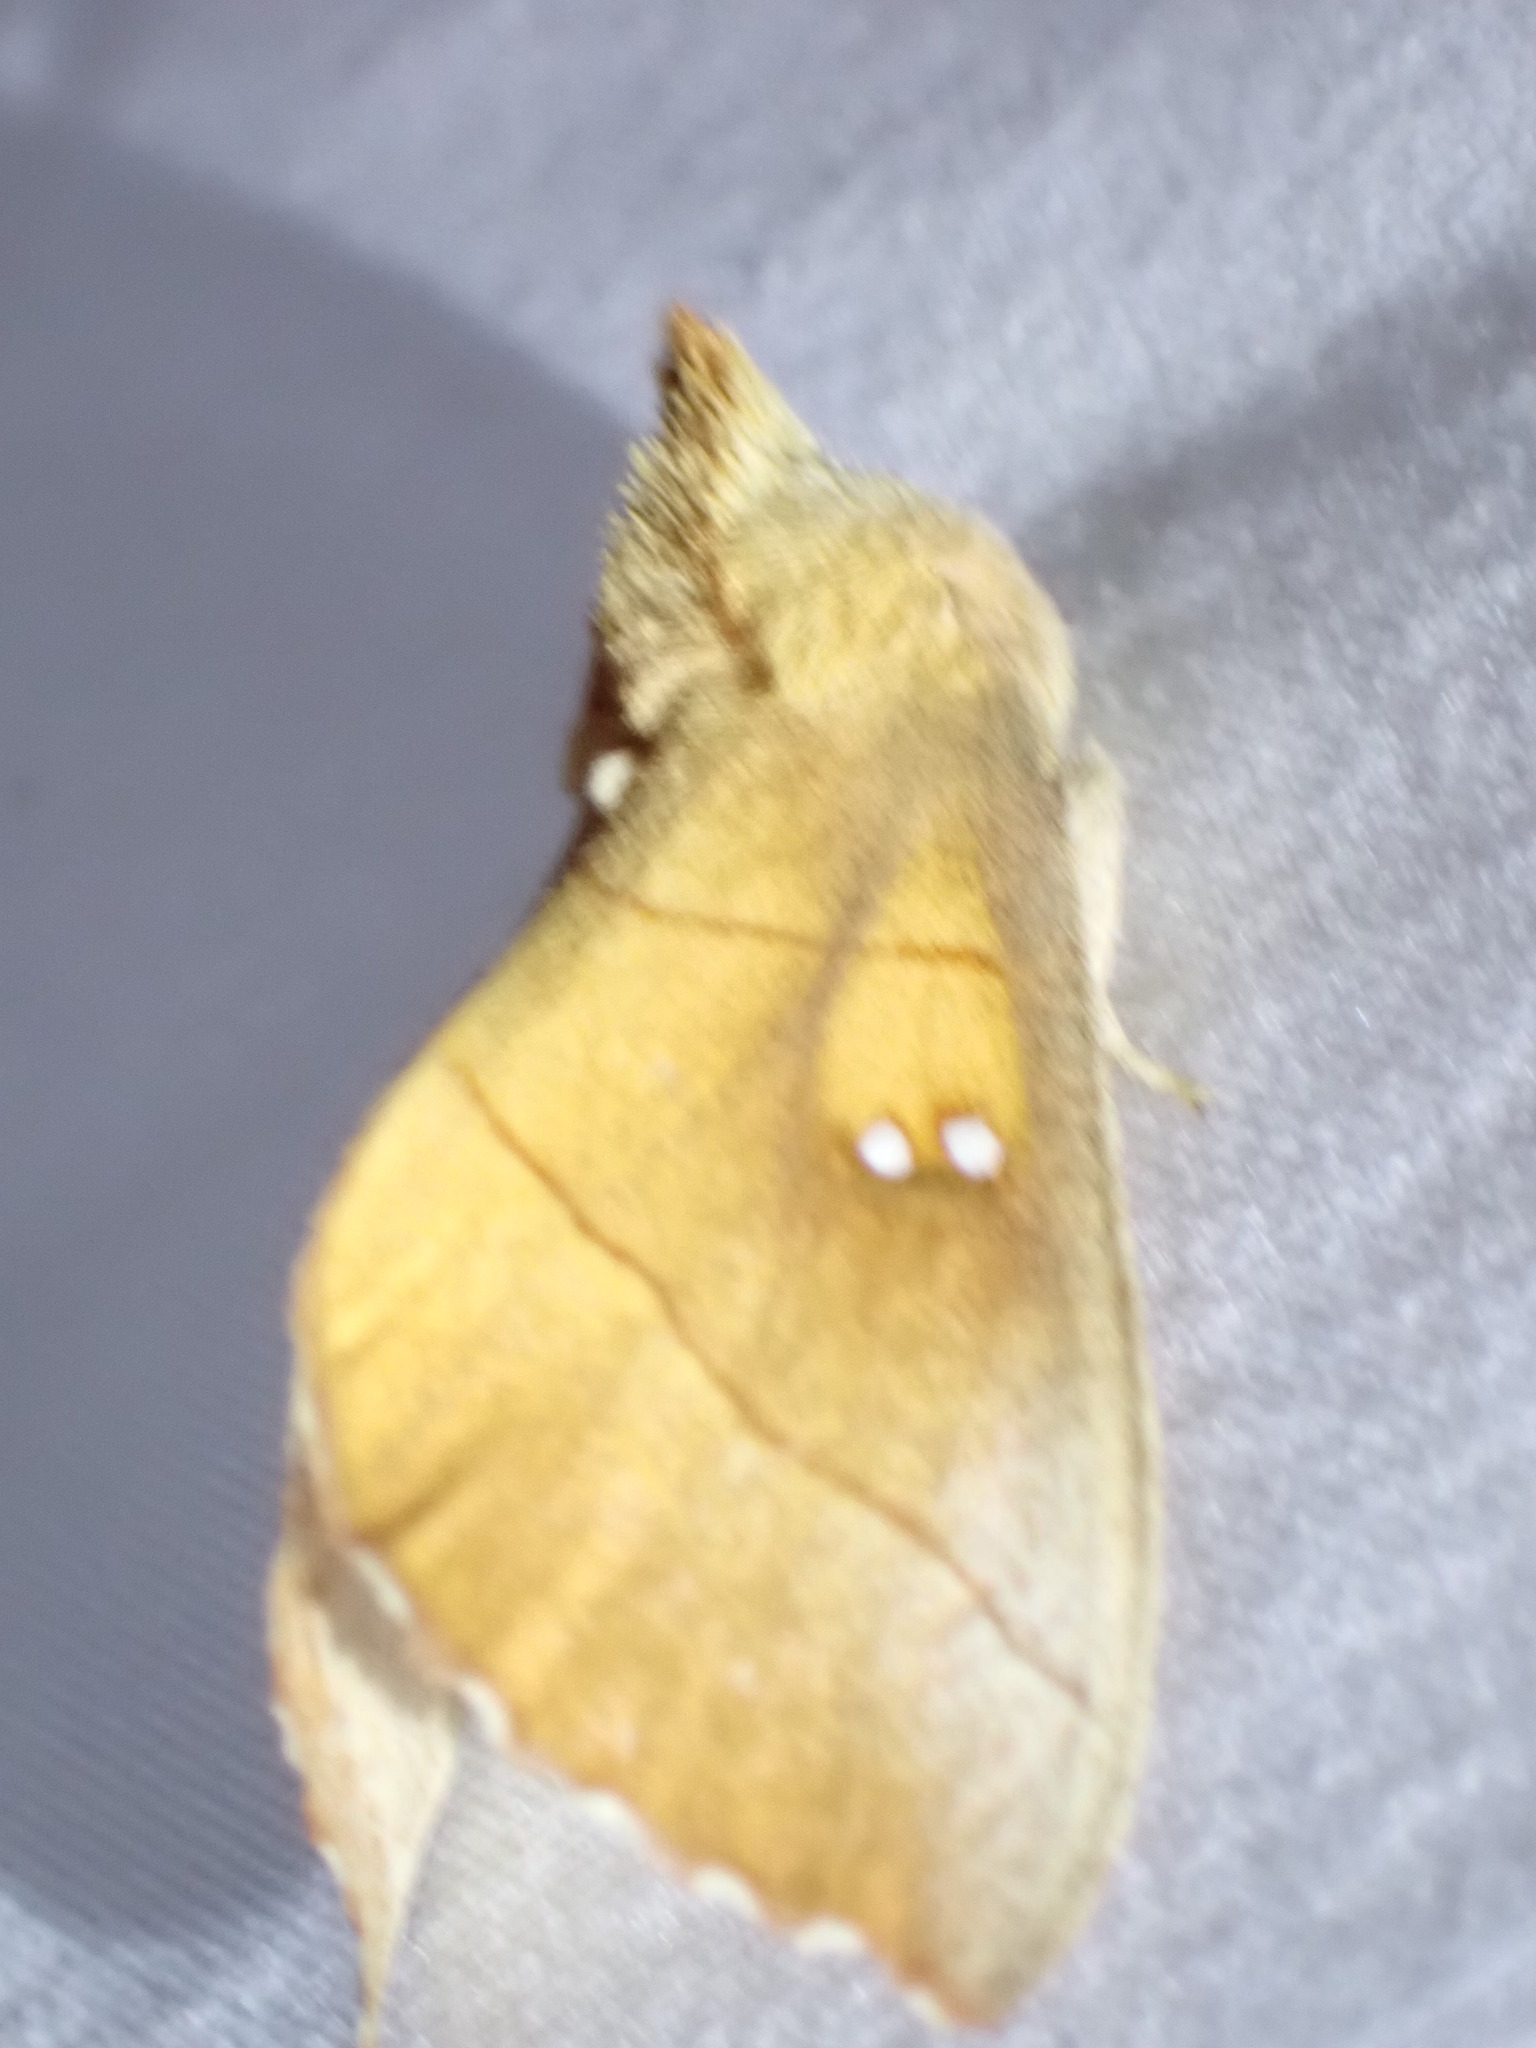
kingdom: Animalia
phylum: Arthropoda
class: Insecta
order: Lepidoptera
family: Notodontidae
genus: Nadata
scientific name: Nadata gibbosa
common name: White-dotted prominent
